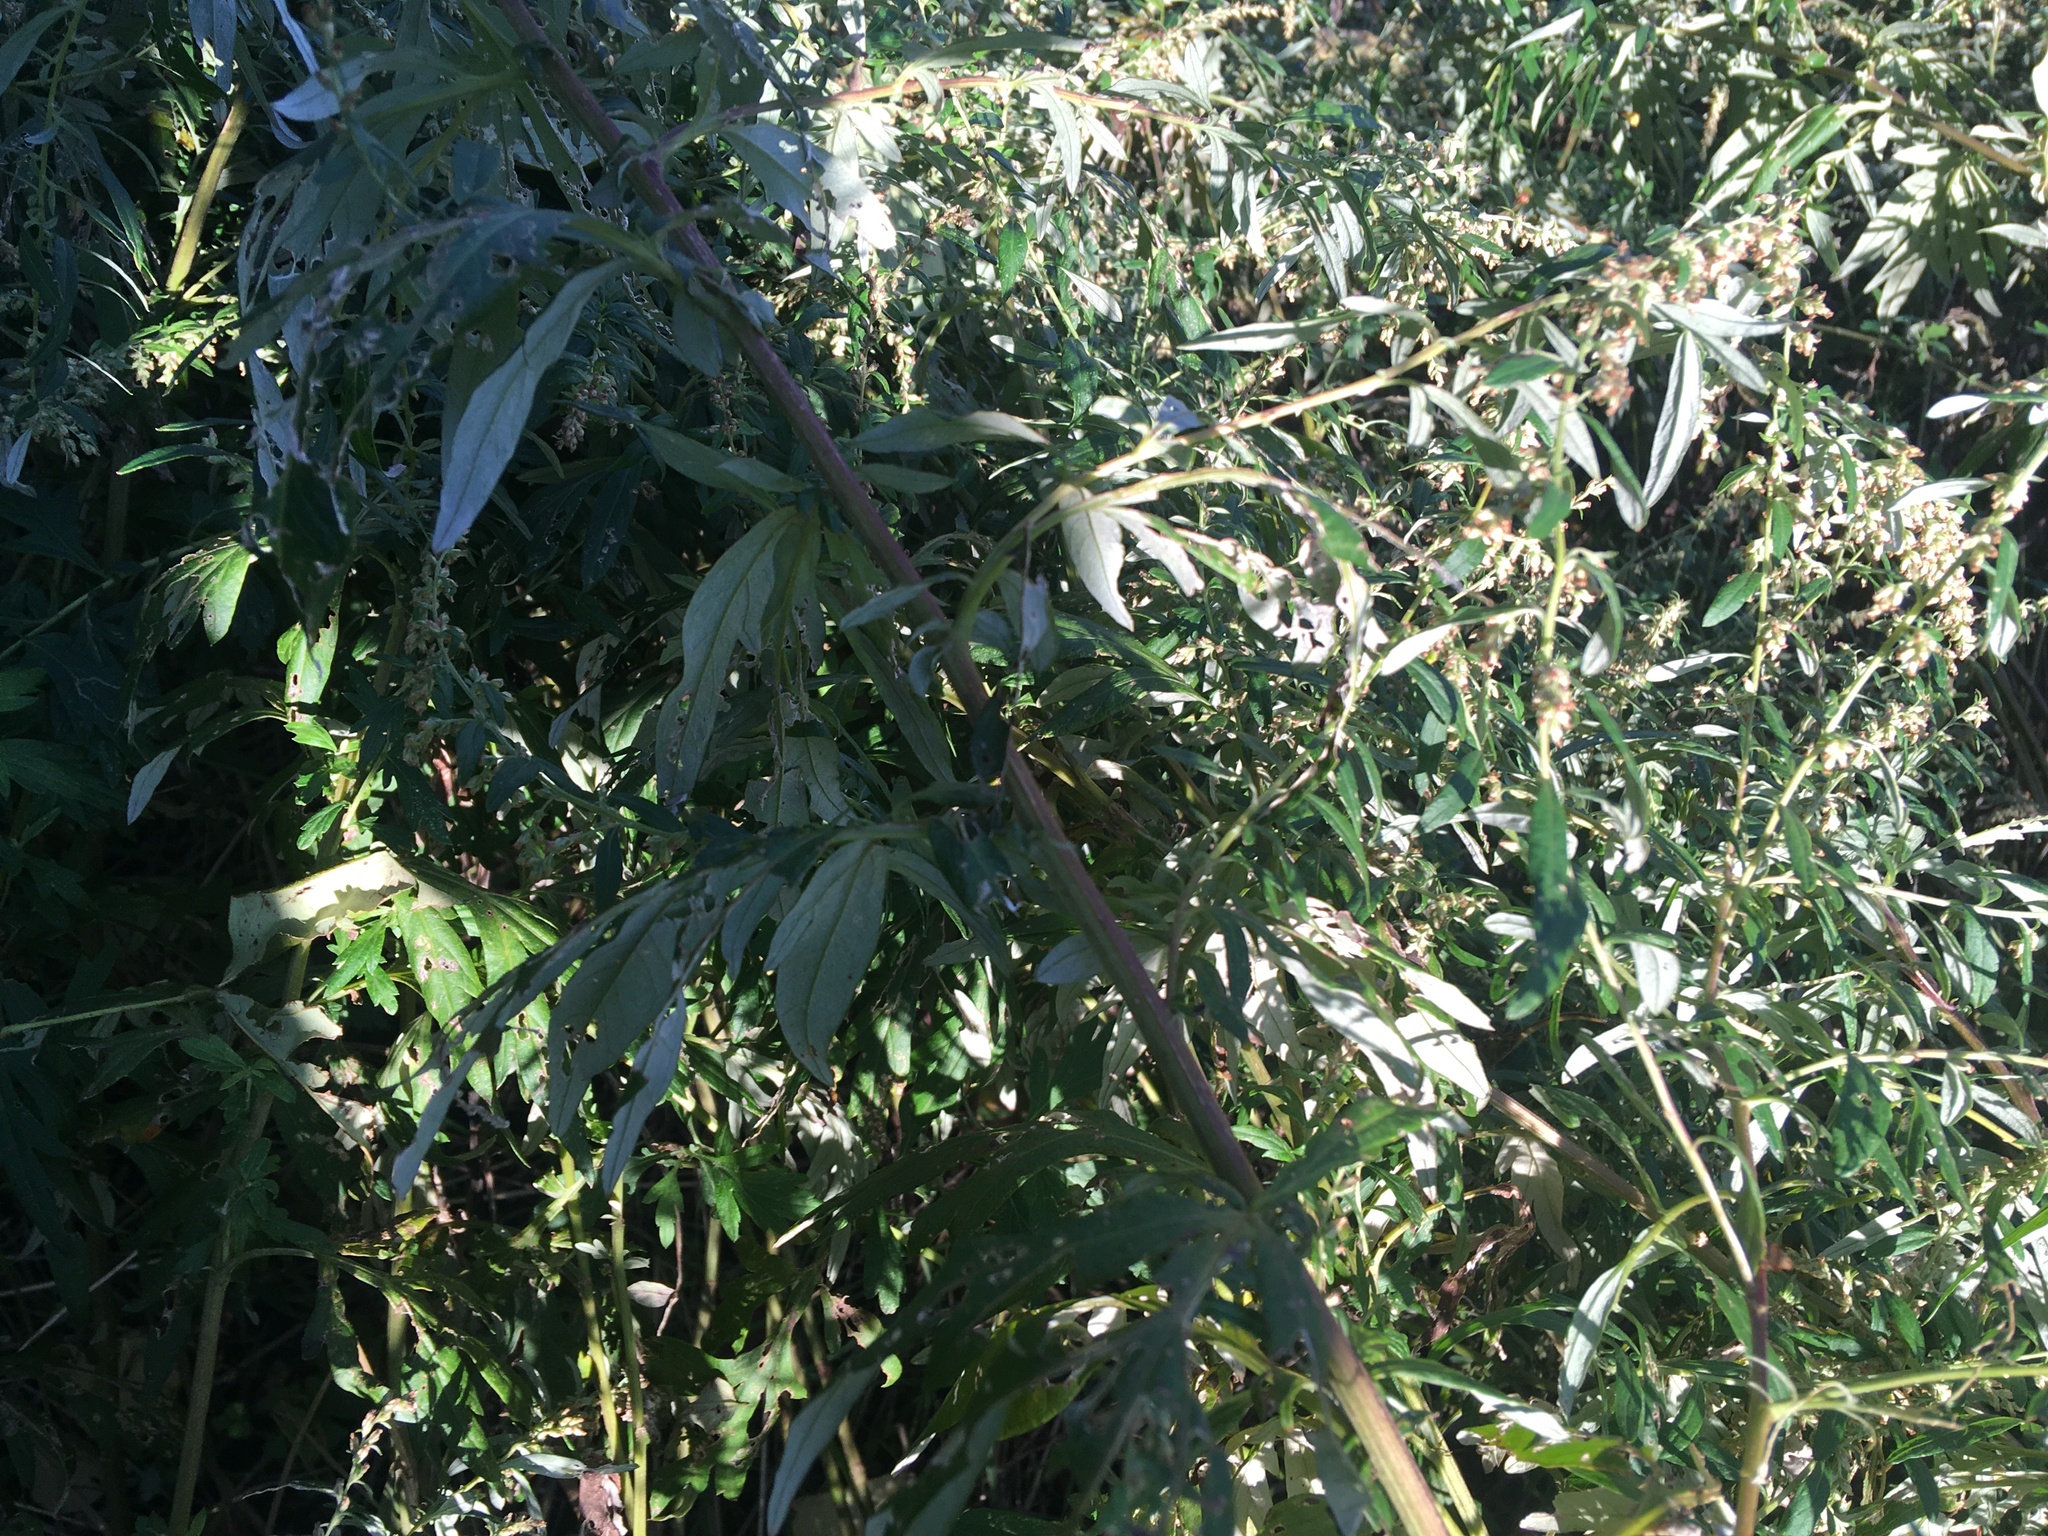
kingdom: Plantae
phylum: Tracheophyta
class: Magnoliopsida
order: Asterales
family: Asteraceae
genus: Artemisia
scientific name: Artemisia vulgaris
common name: Mugwort
